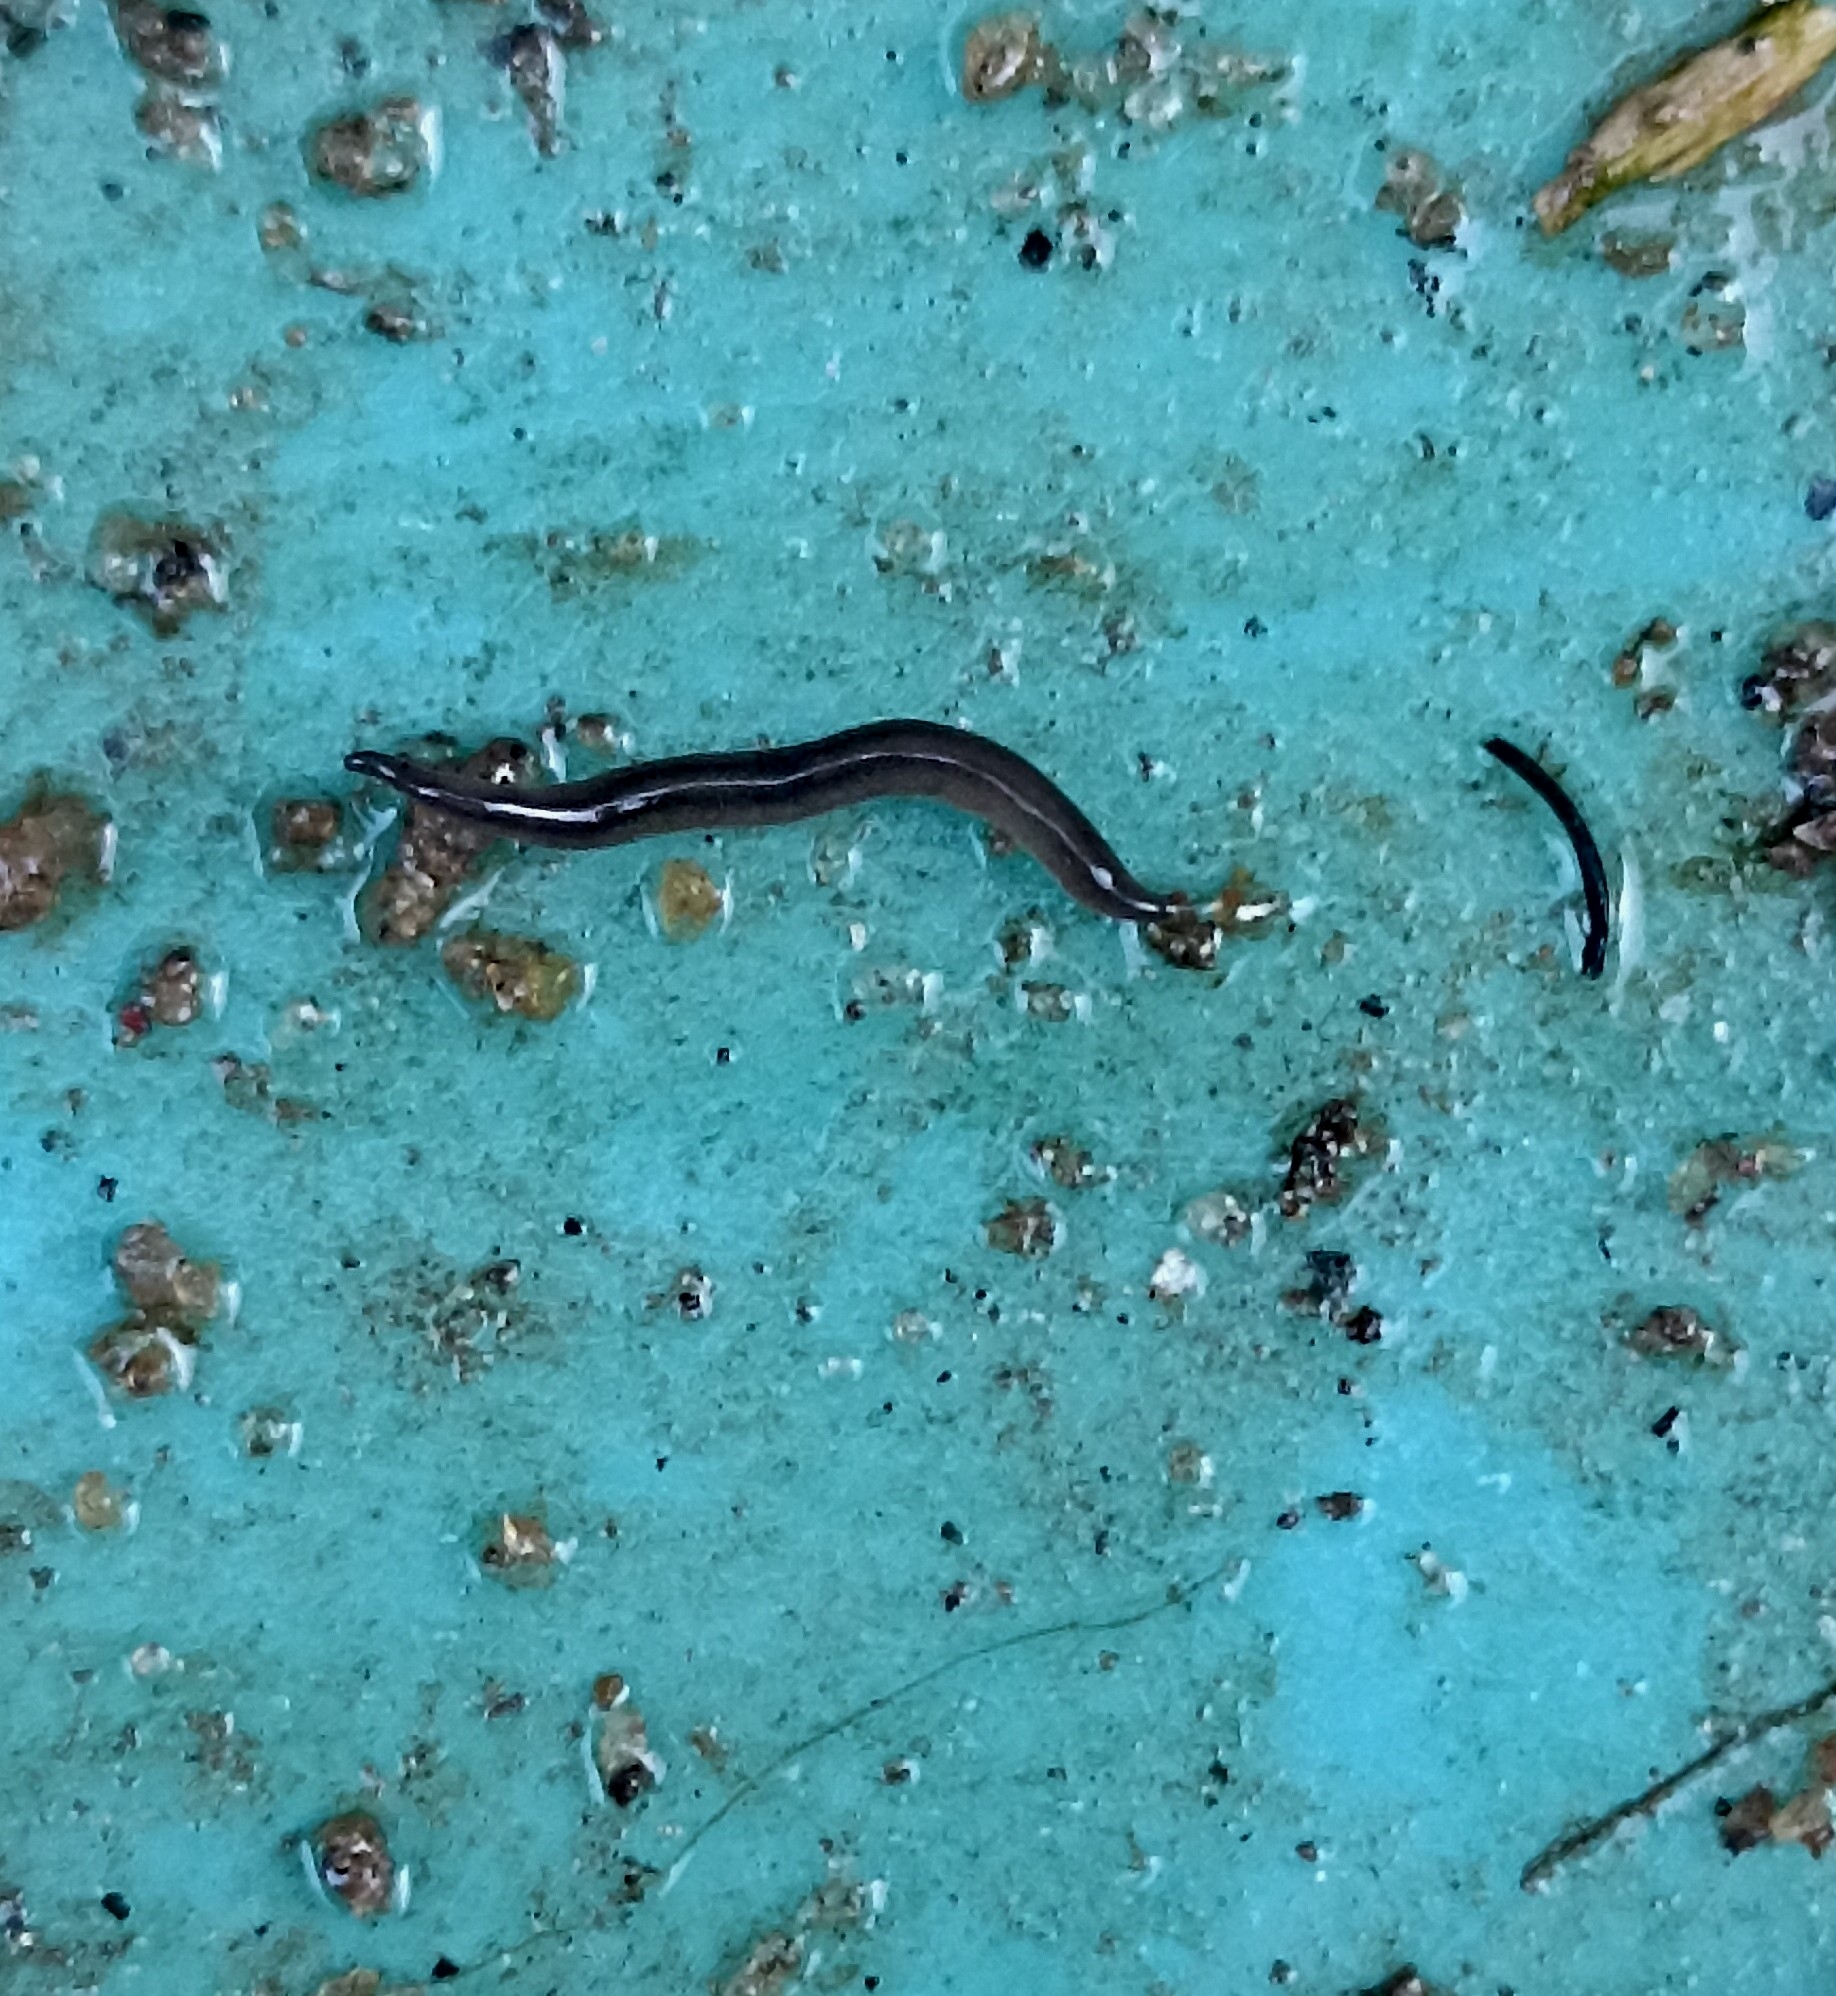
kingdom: Animalia
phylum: Platyhelminthes
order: Tricladida
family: Geoplanidae
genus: Platydemus
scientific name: Platydemus manokwari
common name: New guinea flatworm
